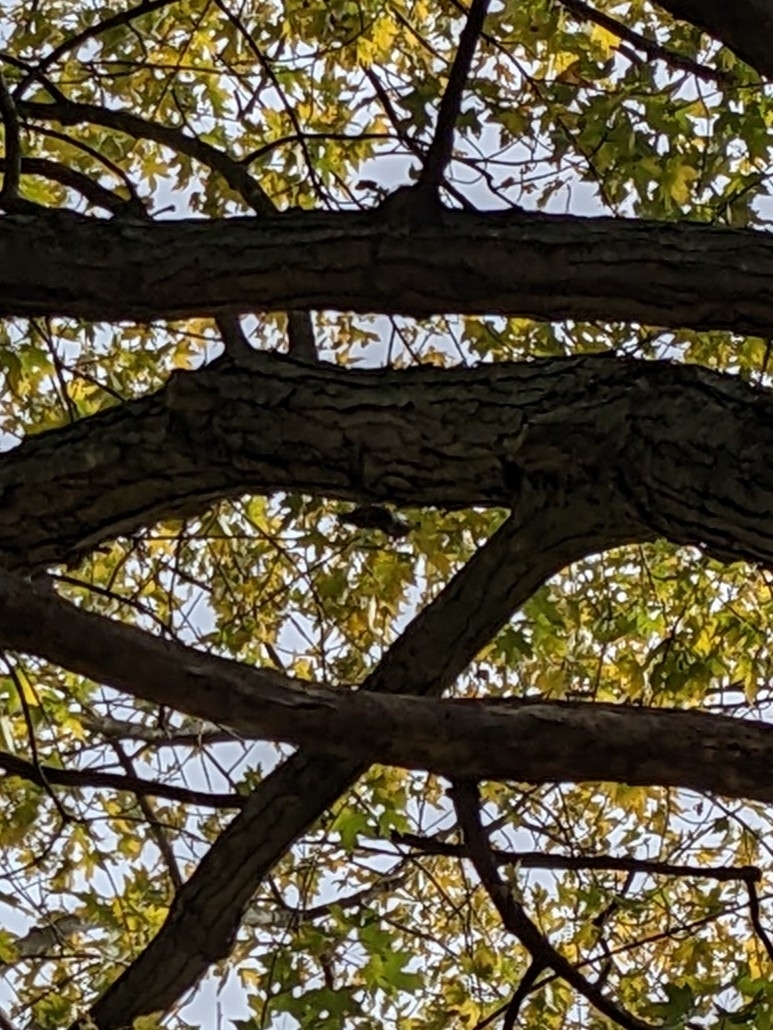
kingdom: Animalia
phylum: Chordata
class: Aves
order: Passeriformes
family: Sittidae
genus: Sitta
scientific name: Sitta carolinensis
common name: White-breasted nuthatch
